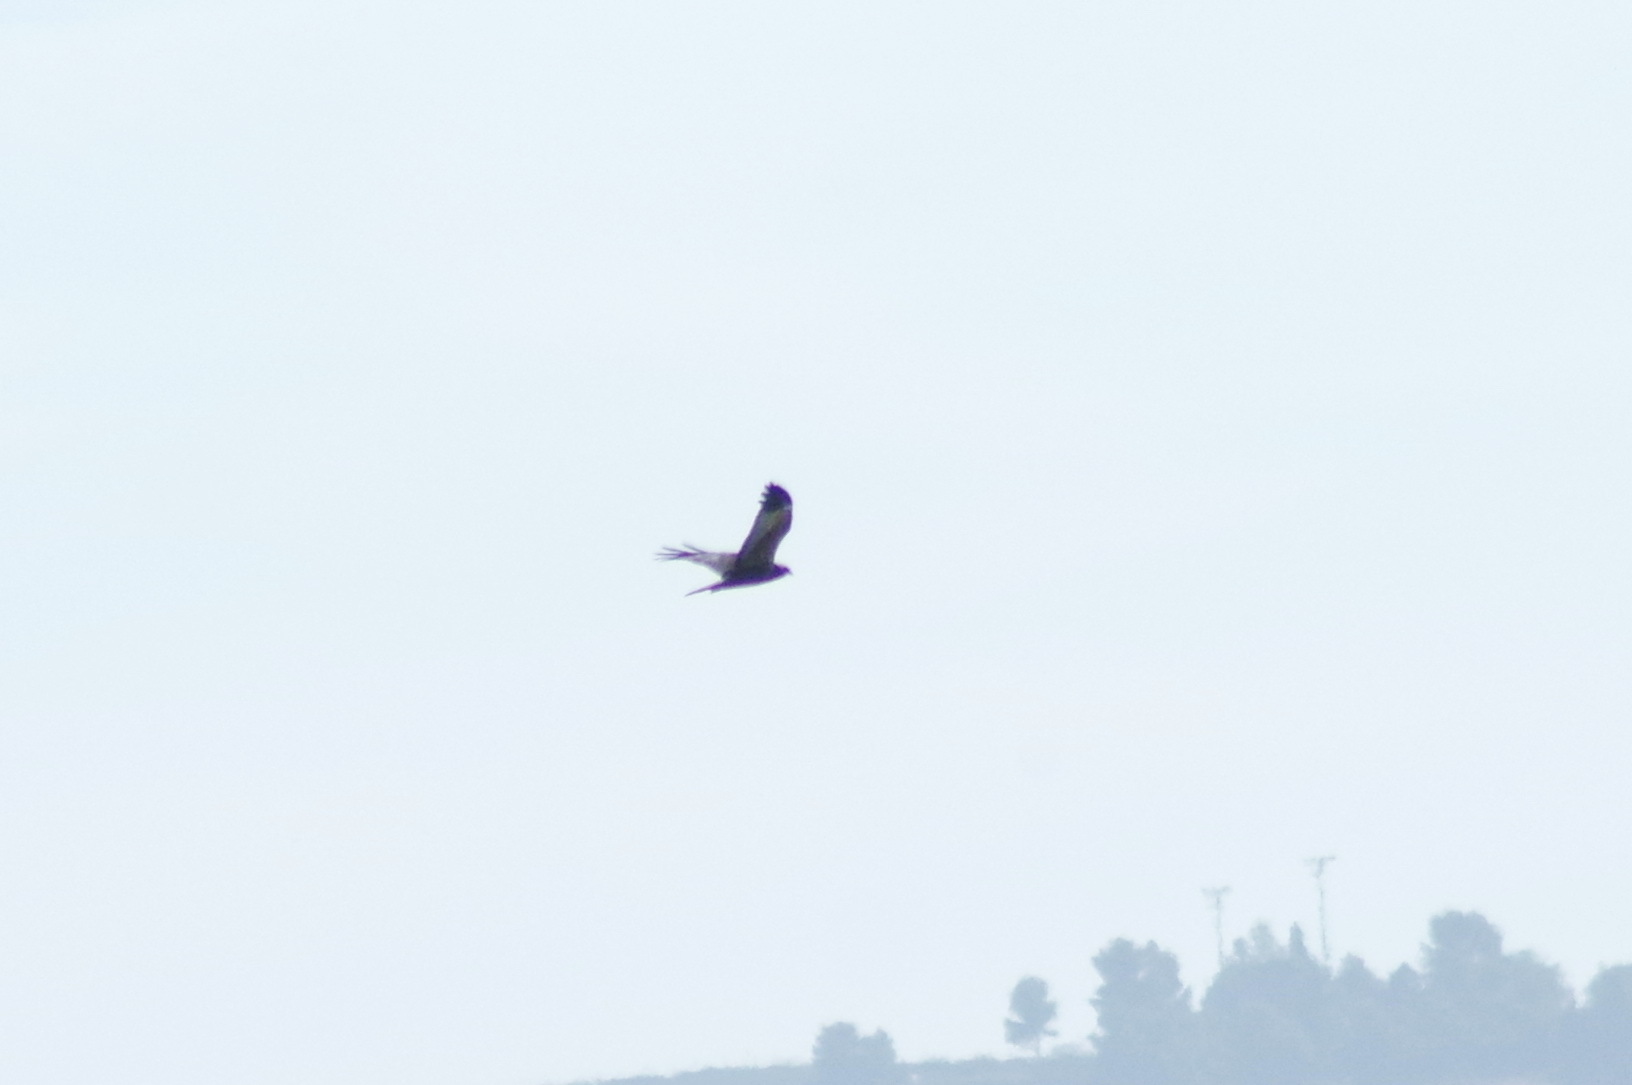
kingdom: Animalia
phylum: Chordata
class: Aves
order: Accipitriformes
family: Accipitridae
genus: Circus
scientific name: Circus aeruginosus
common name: Western marsh harrier
